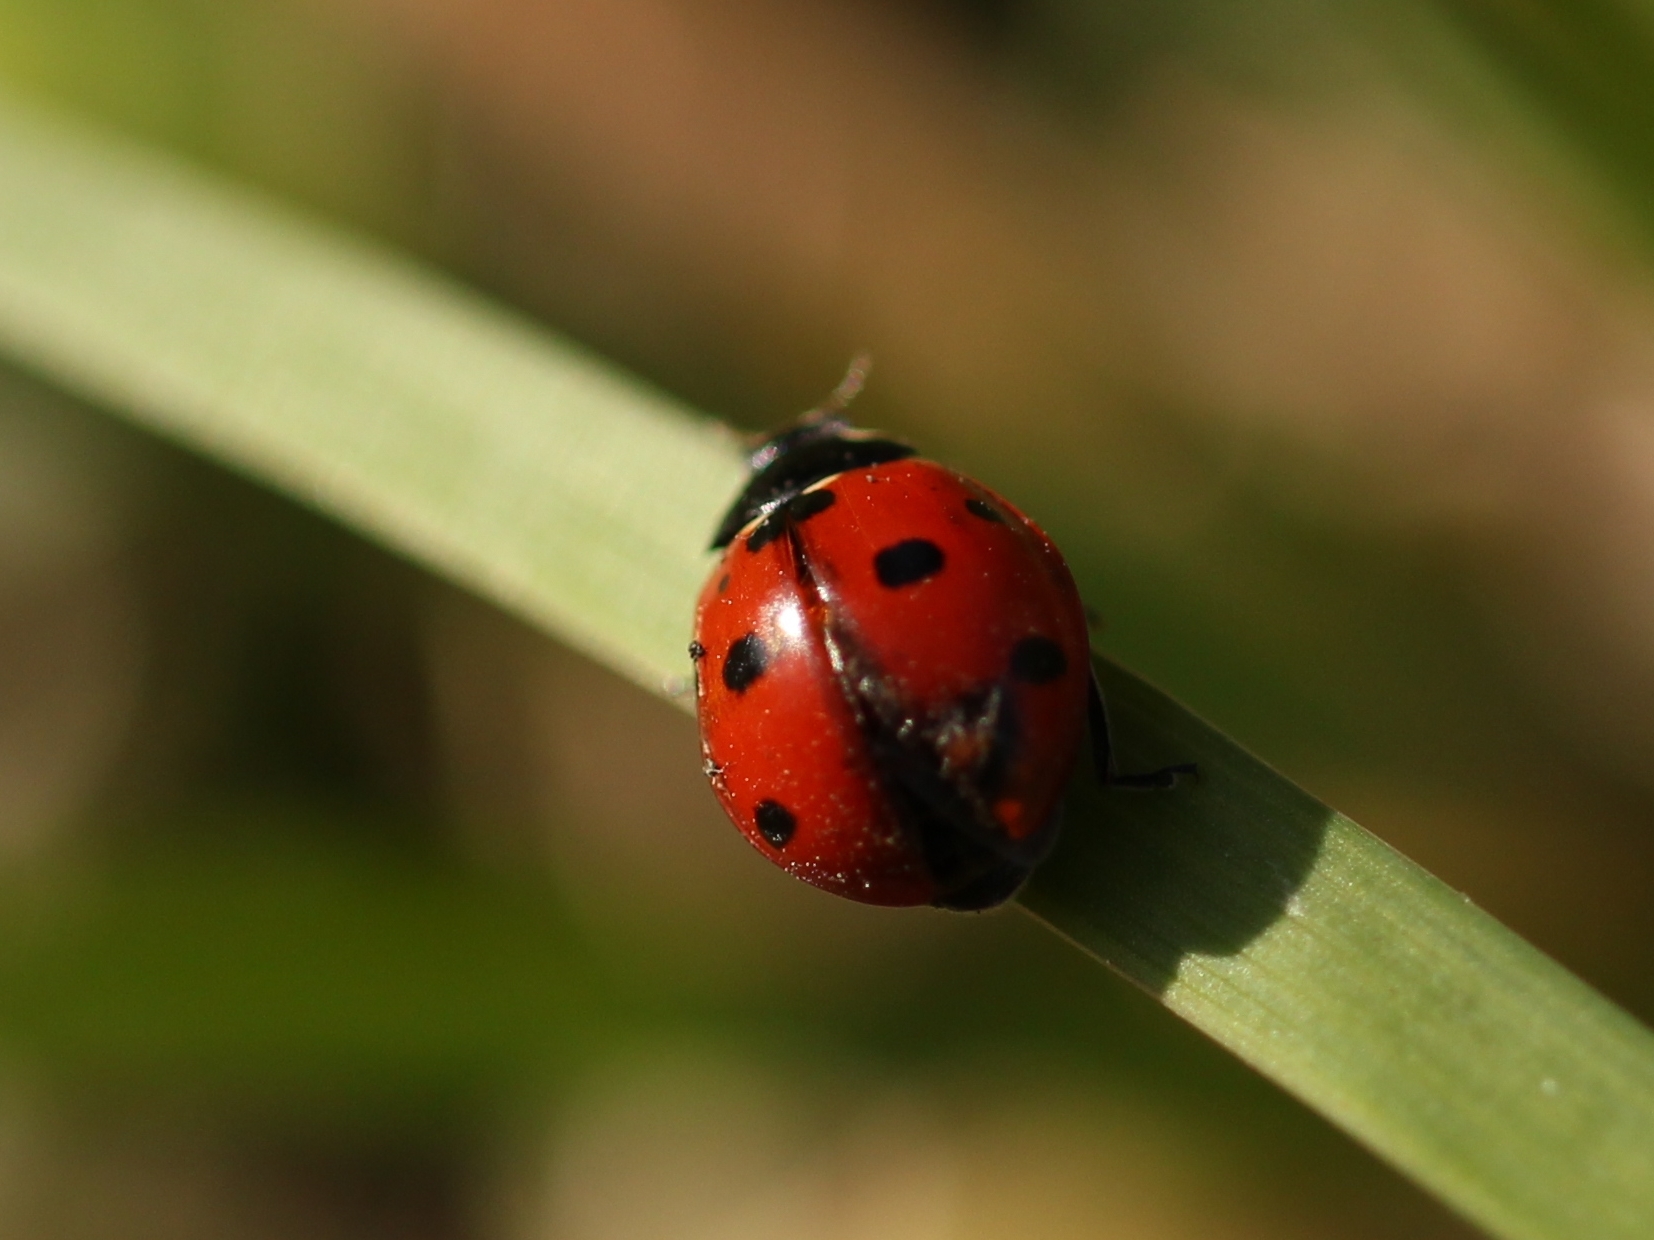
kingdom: Animalia
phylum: Arthropoda
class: Insecta
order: Coleoptera
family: Coccinellidae
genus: Coccinella
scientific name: Coccinella septempunctata
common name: Sevenspotted lady beetle
